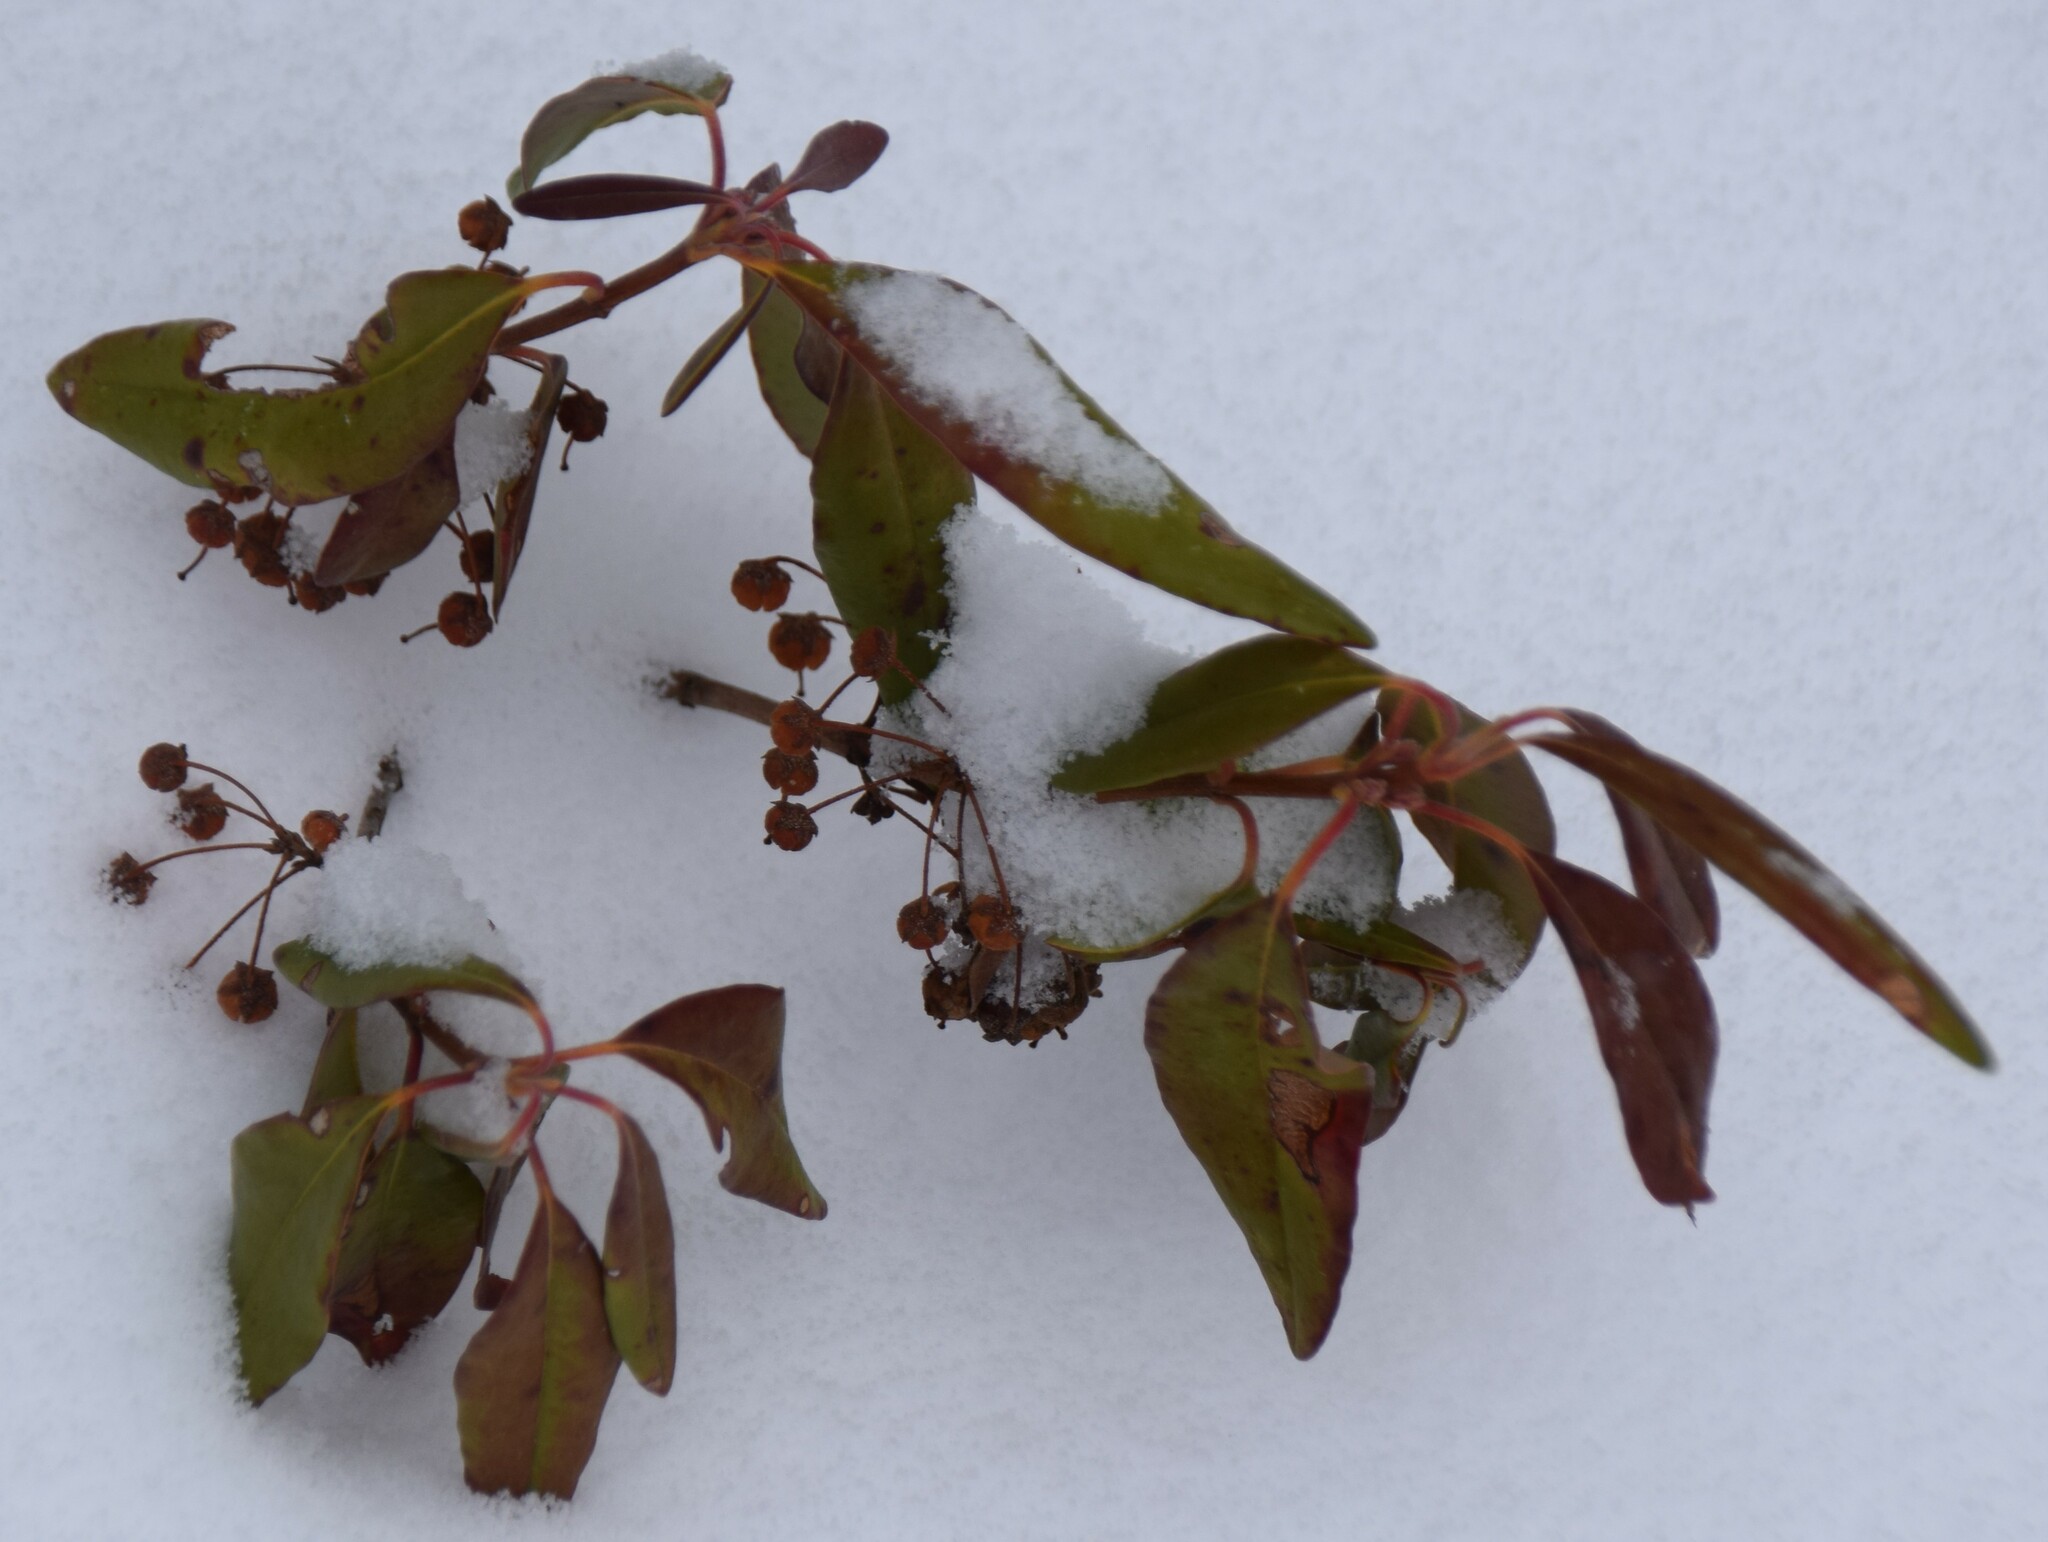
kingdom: Plantae
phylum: Tracheophyta
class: Magnoliopsida
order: Ericales
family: Ericaceae
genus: Kalmia
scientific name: Kalmia angustifolia
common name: Sheep-laurel
